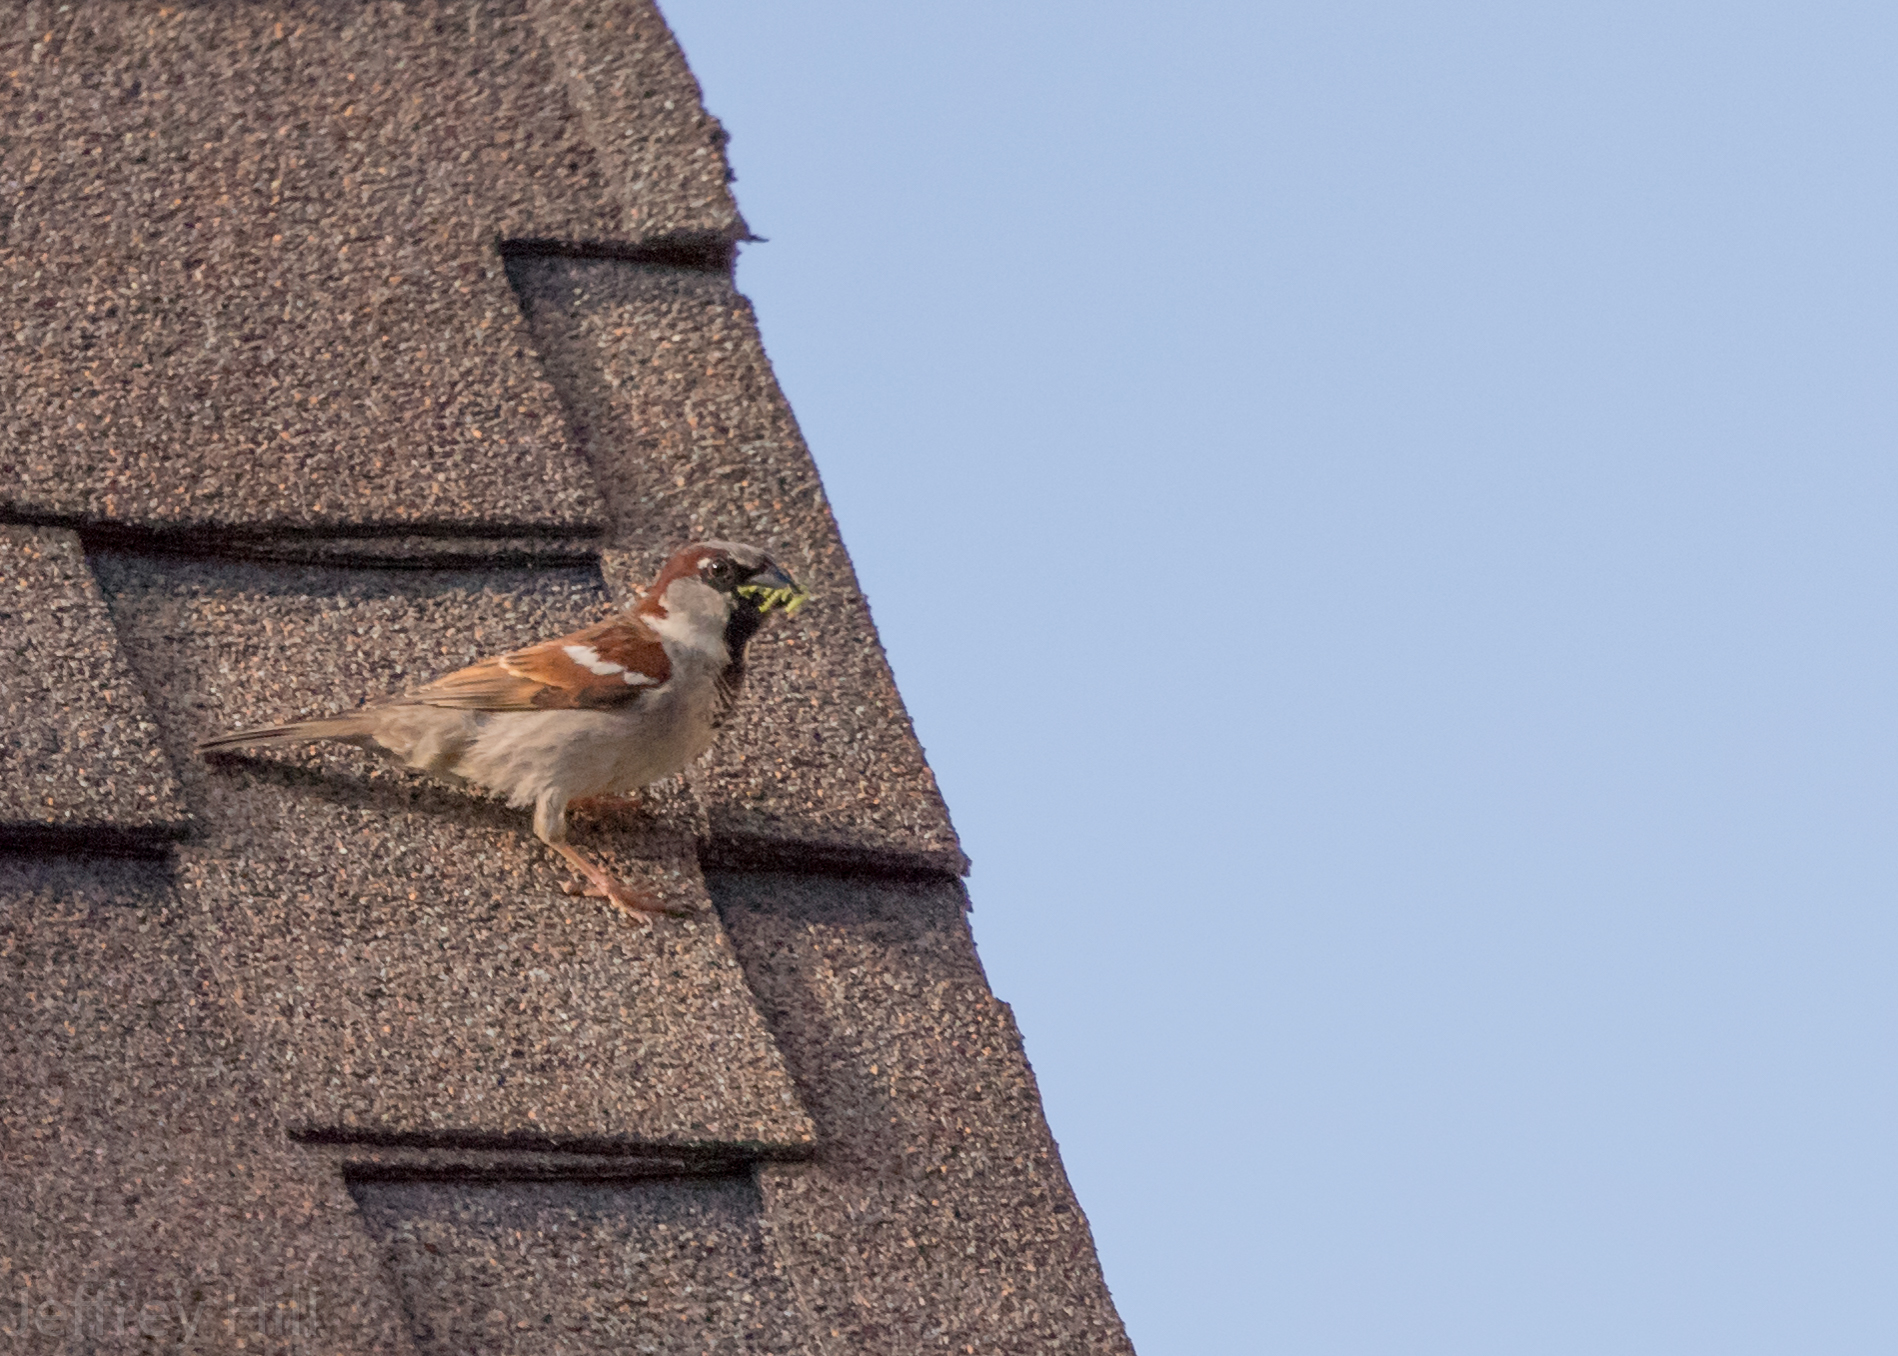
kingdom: Animalia
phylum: Chordata
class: Aves
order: Passeriformes
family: Passeridae
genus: Passer
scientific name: Passer domesticus
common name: House sparrow
